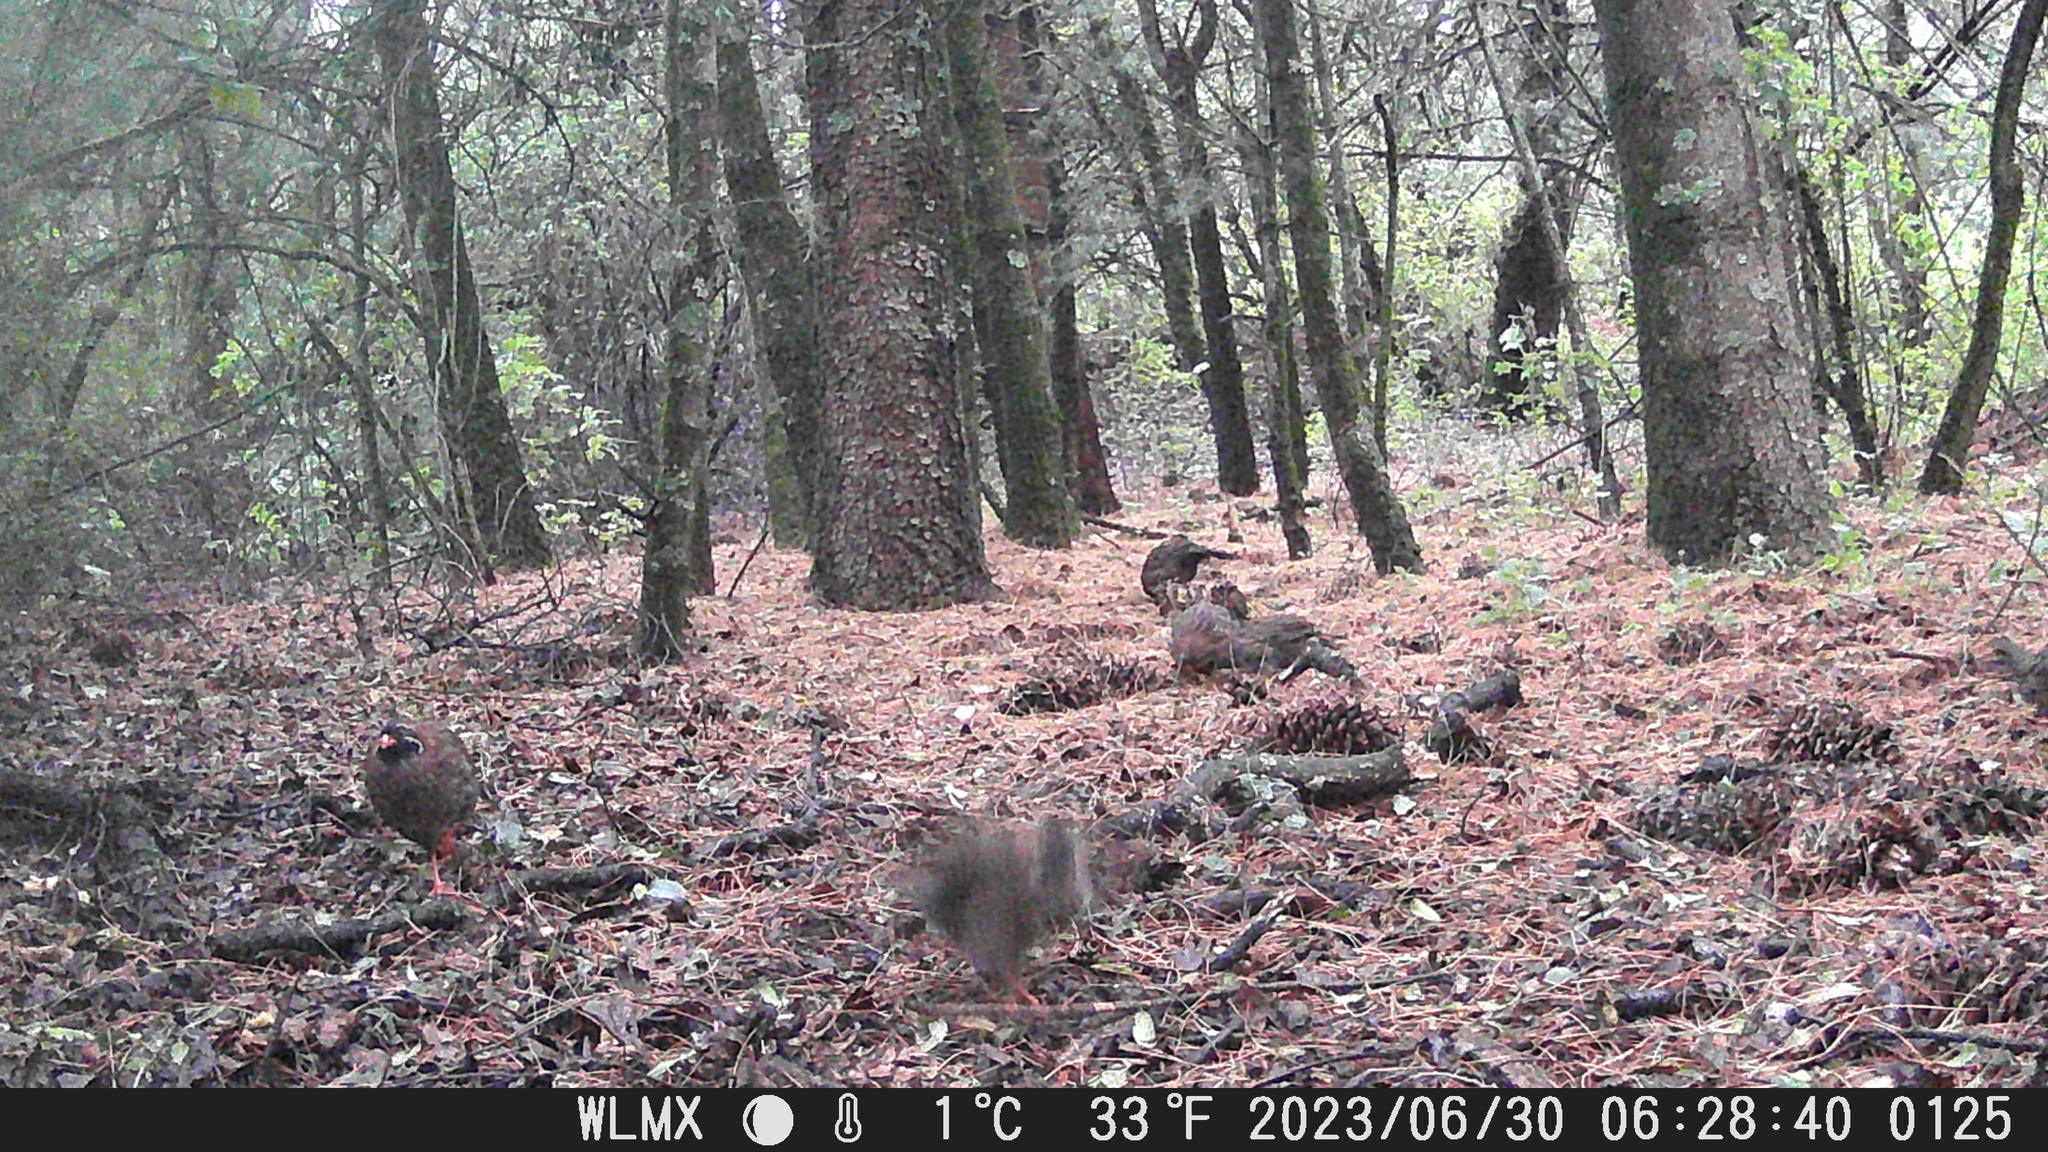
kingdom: Animalia
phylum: Chordata
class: Aves
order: Galliformes
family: Odontophoridae
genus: Dendrortyx
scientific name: Dendrortyx macroura
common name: Long-tailed wood-partridge
